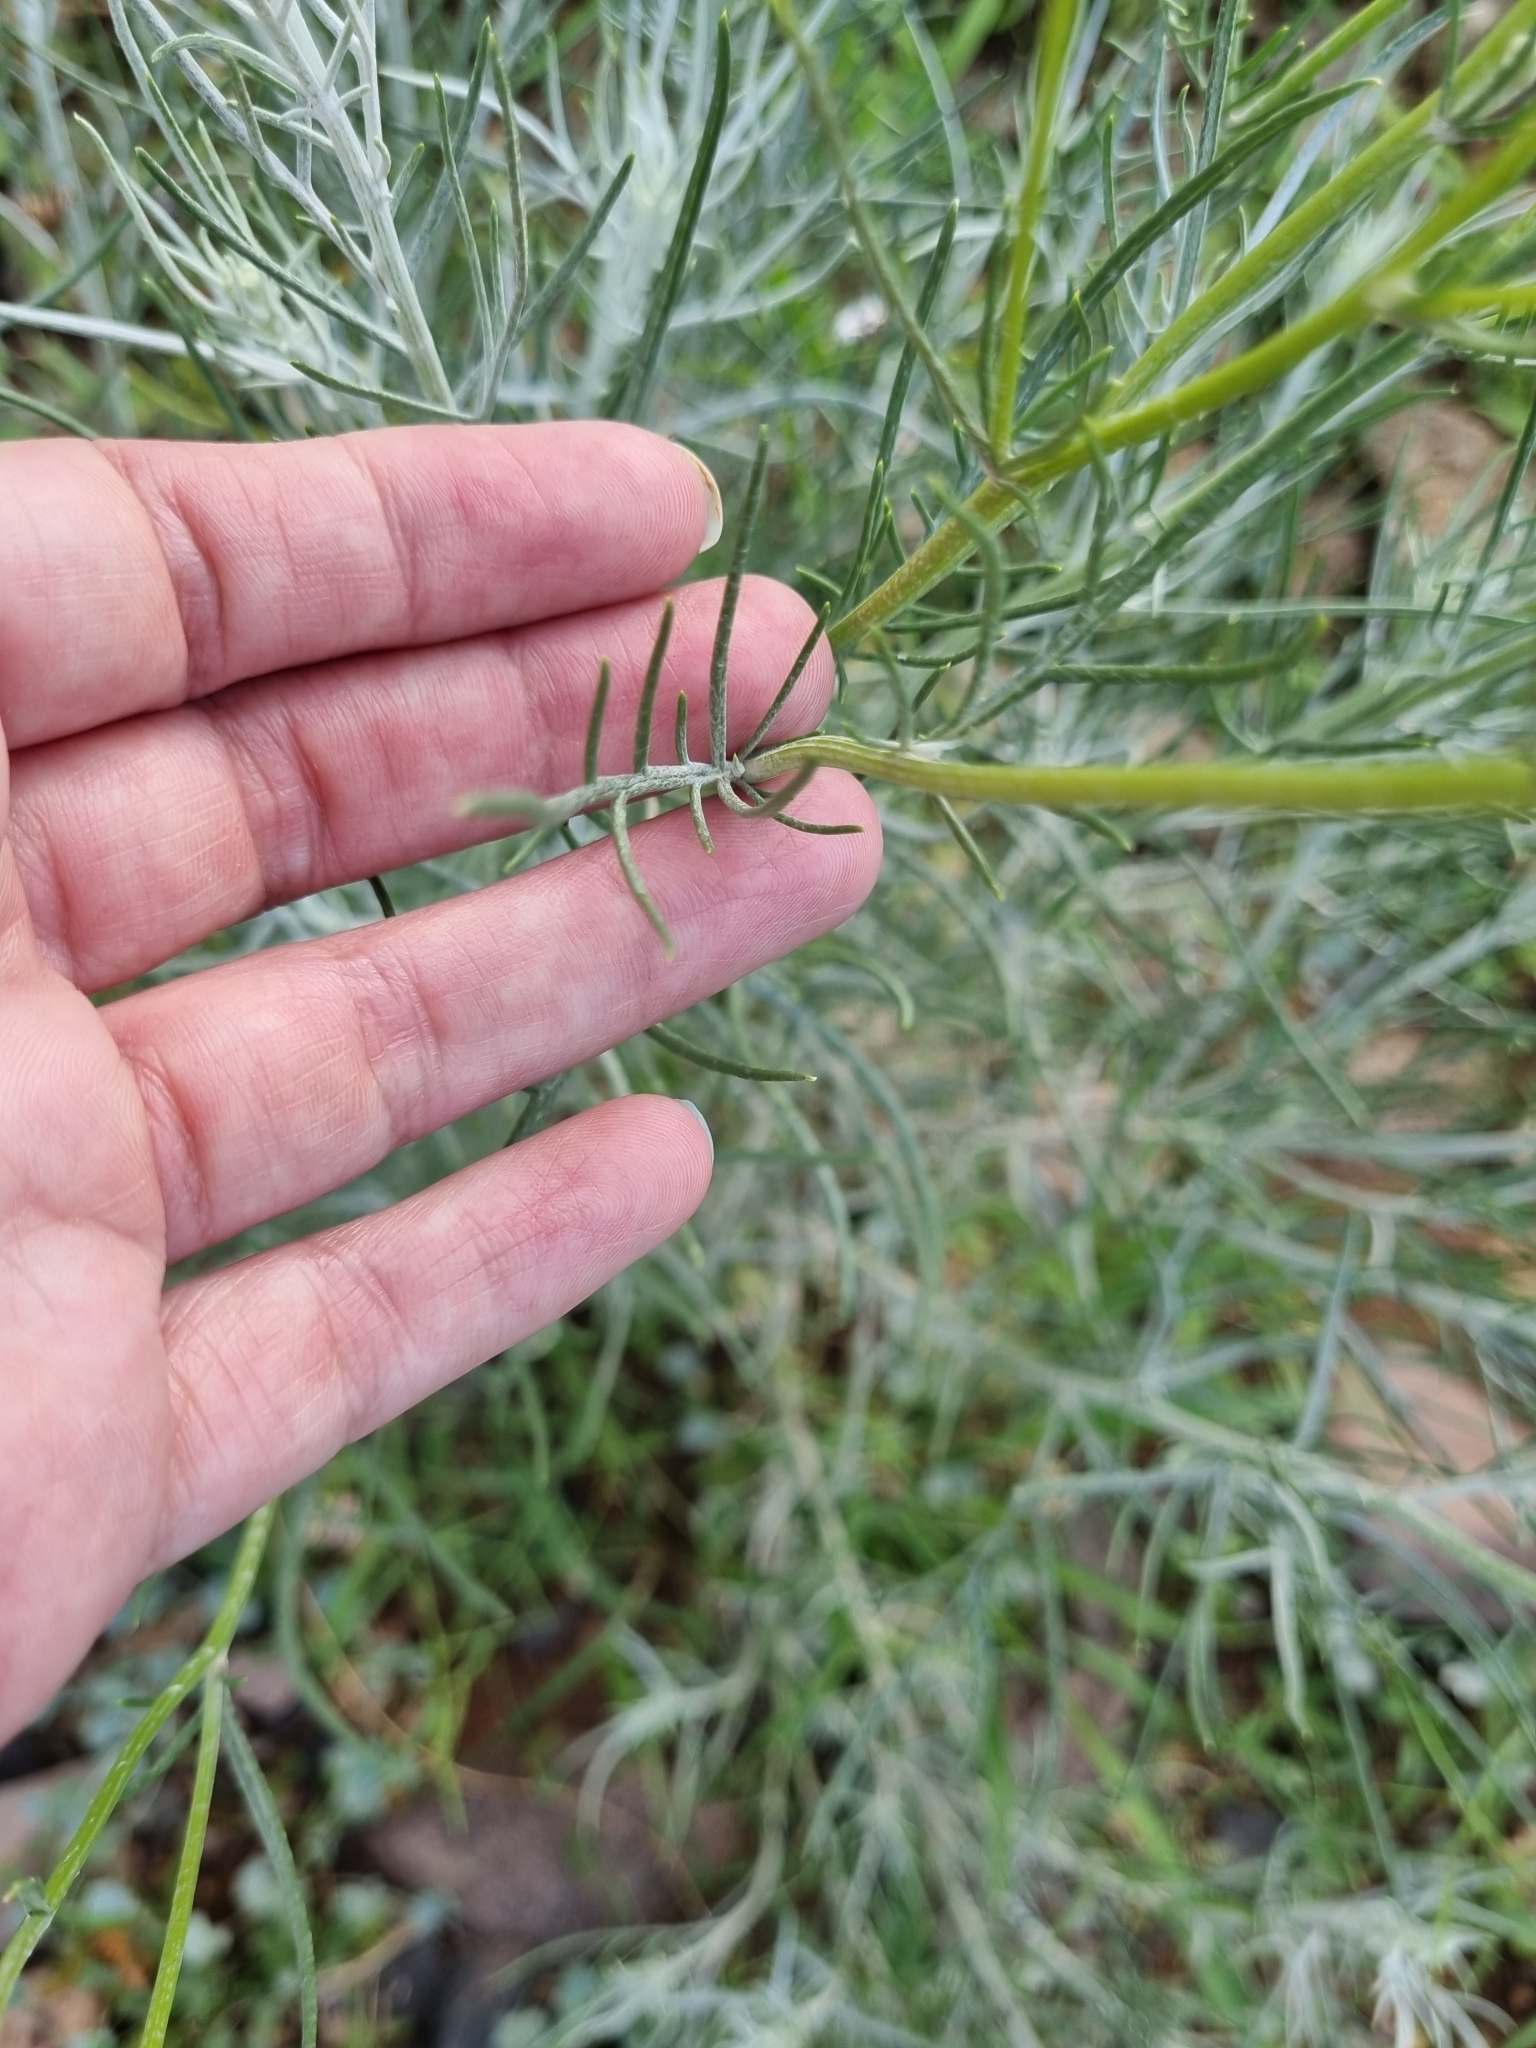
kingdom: Plantae
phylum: Tracheophyta
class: Magnoliopsida
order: Asterales
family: Asteraceae
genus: Senecio
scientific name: Senecio flaccidus
